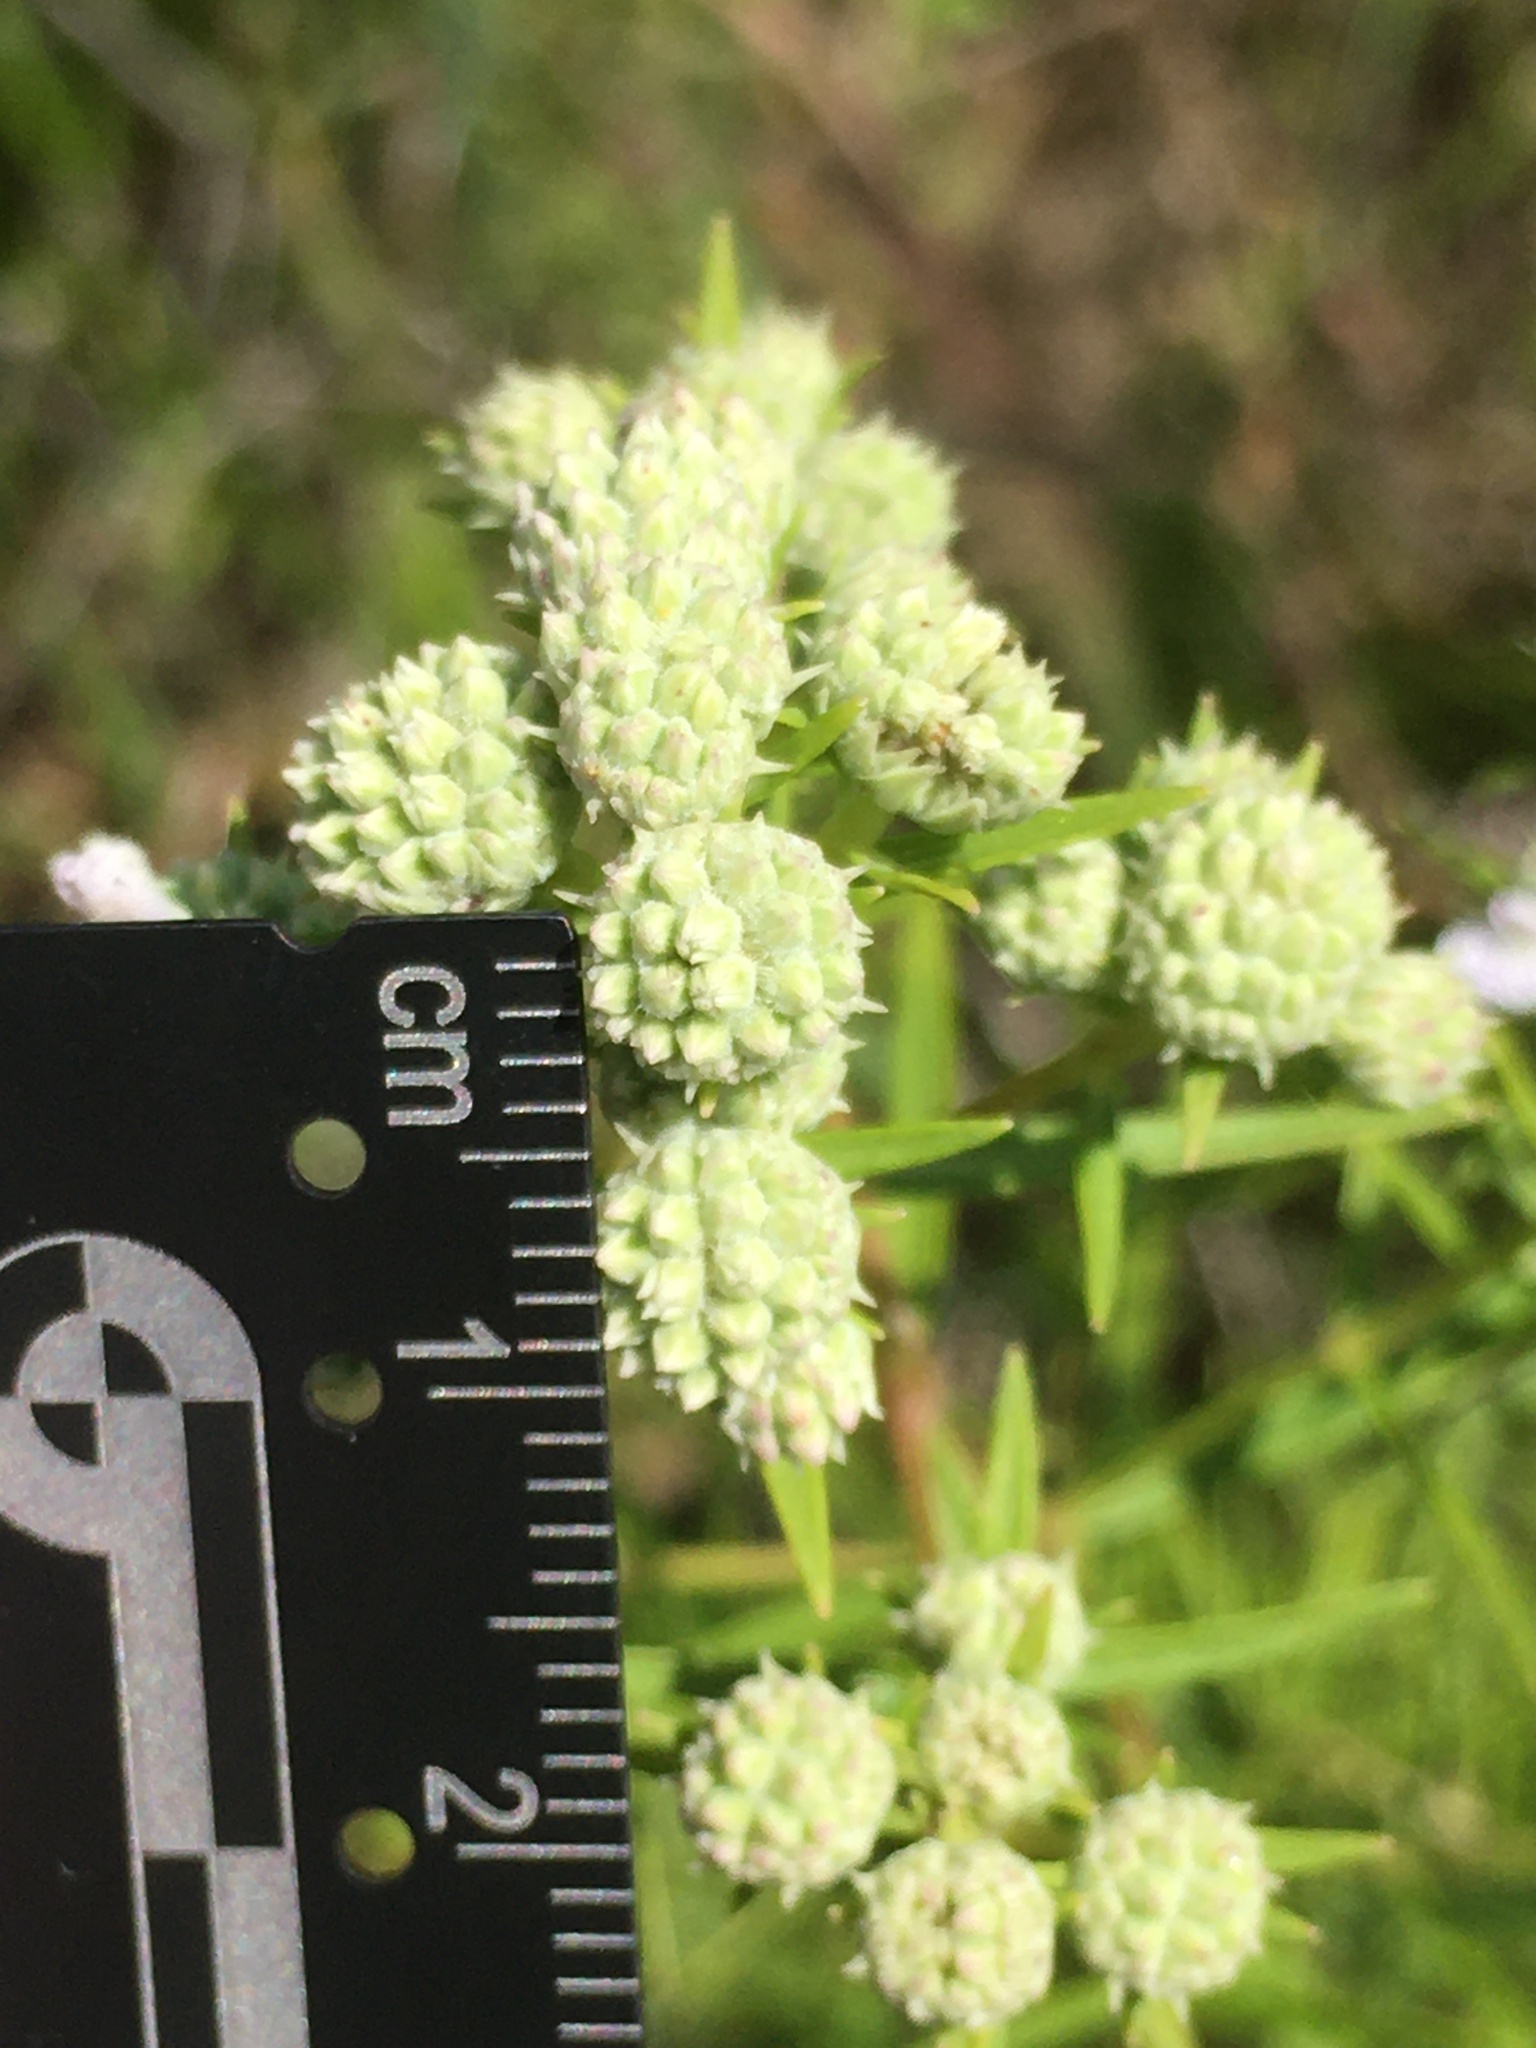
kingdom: Plantae
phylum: Tracheophyta
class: Magnoliopsida
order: Lamiales
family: Lamiaceae
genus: Pycnanthemum
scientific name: Pycnanthemum tenuifolium
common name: Narrow-leaf mountain-mint
